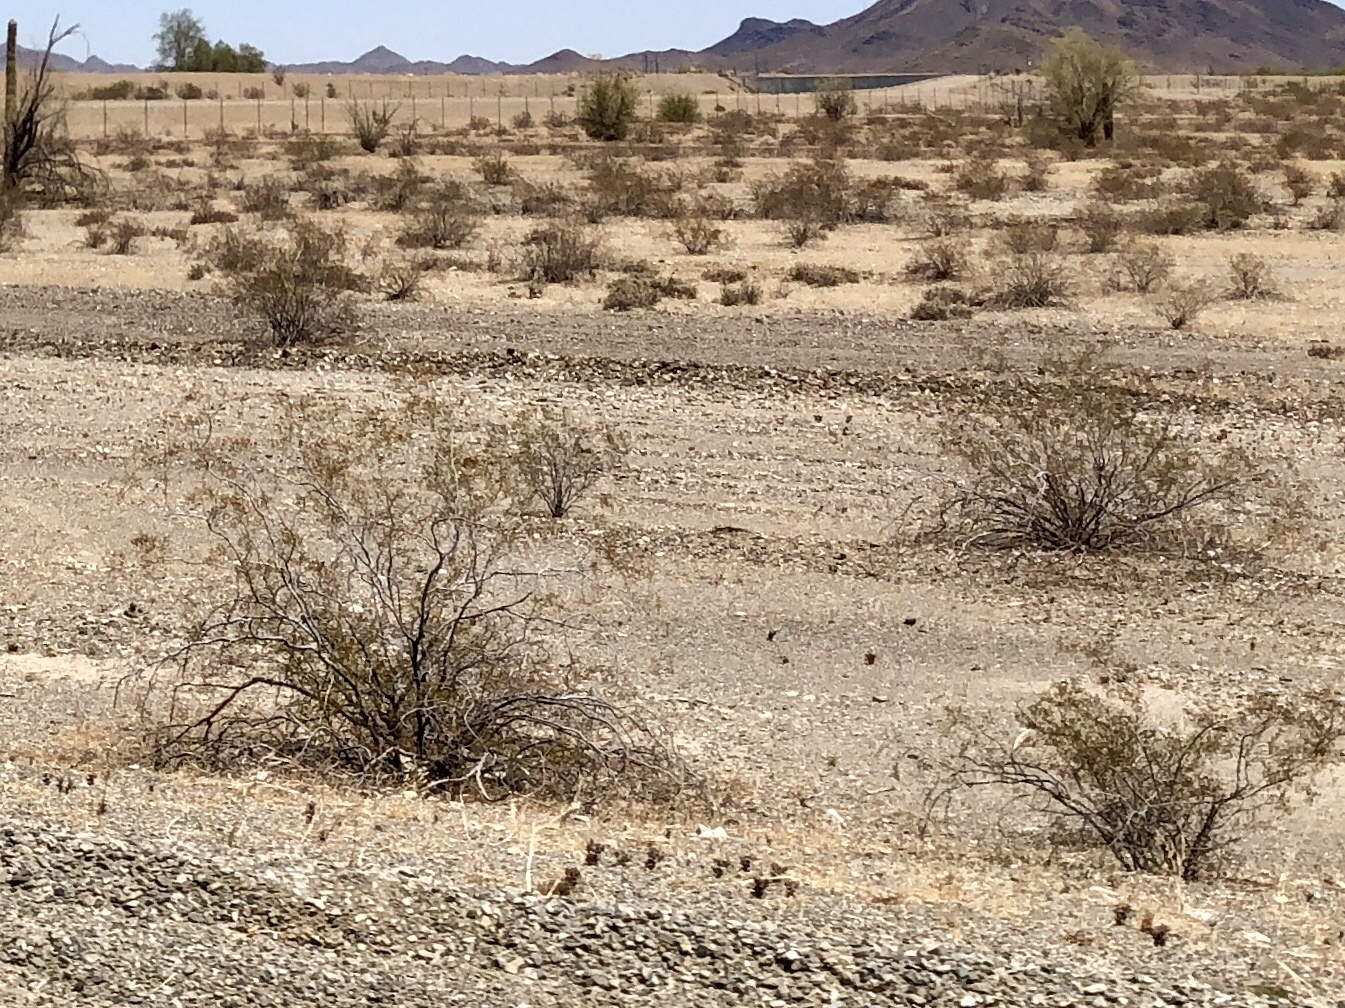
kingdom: Plantae
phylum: Tracheophyta
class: Magnoliopsida
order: Zygophyllales
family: Zygophyllaceae
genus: Larrea
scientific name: Larrea tridentata
